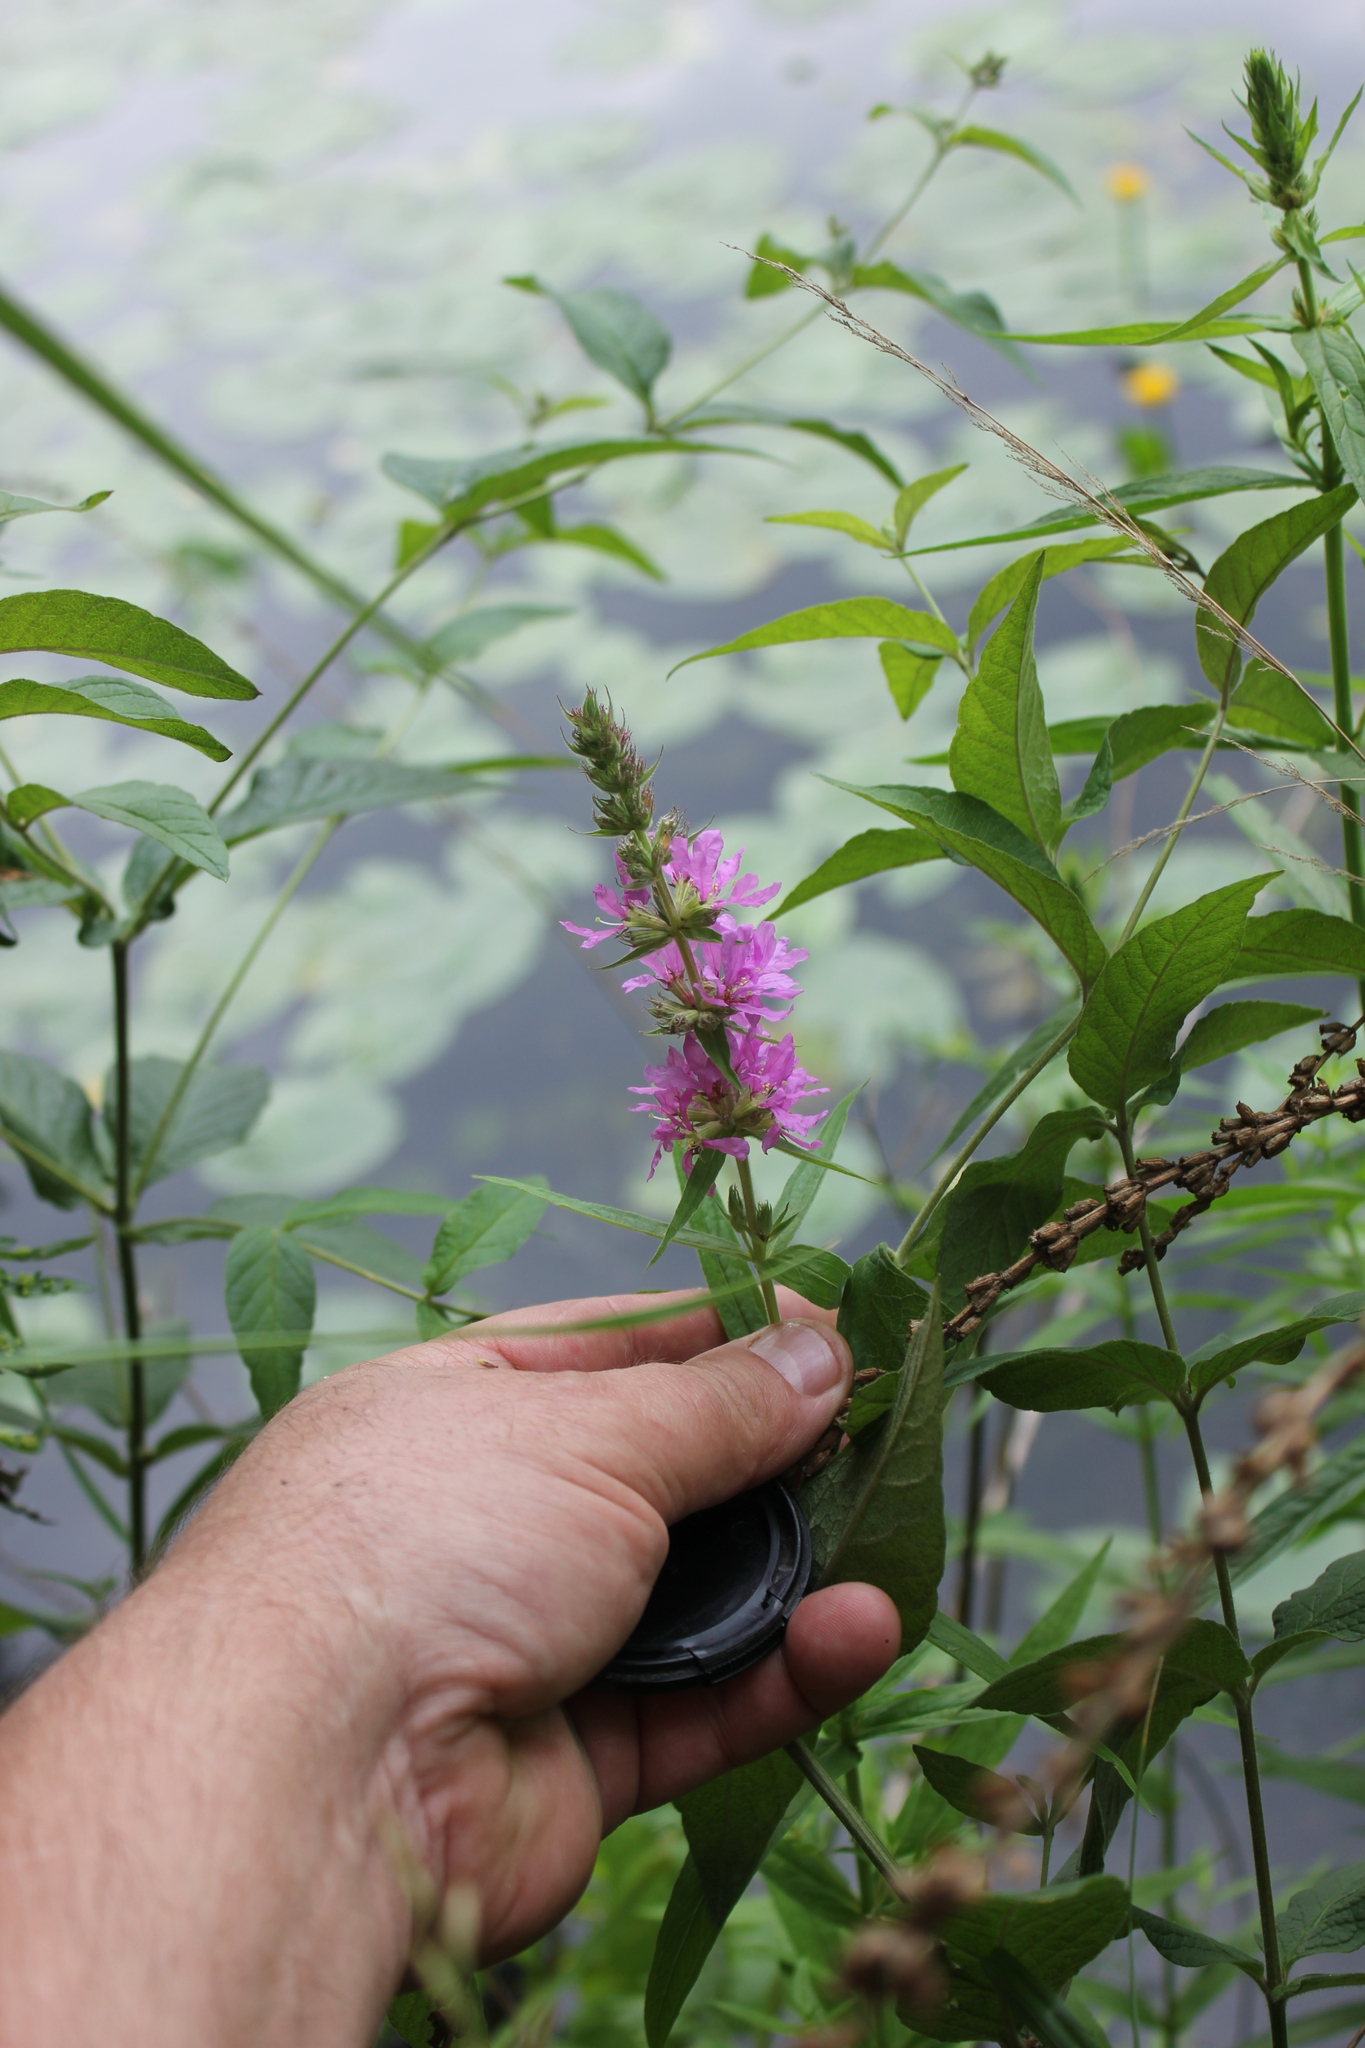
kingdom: Plantae
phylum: Tracheophyta
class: Magnoliopsida
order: Myrtales
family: Lythraceae
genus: Lythrum
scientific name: Lythrum salicaria
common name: Purple loosestrife
